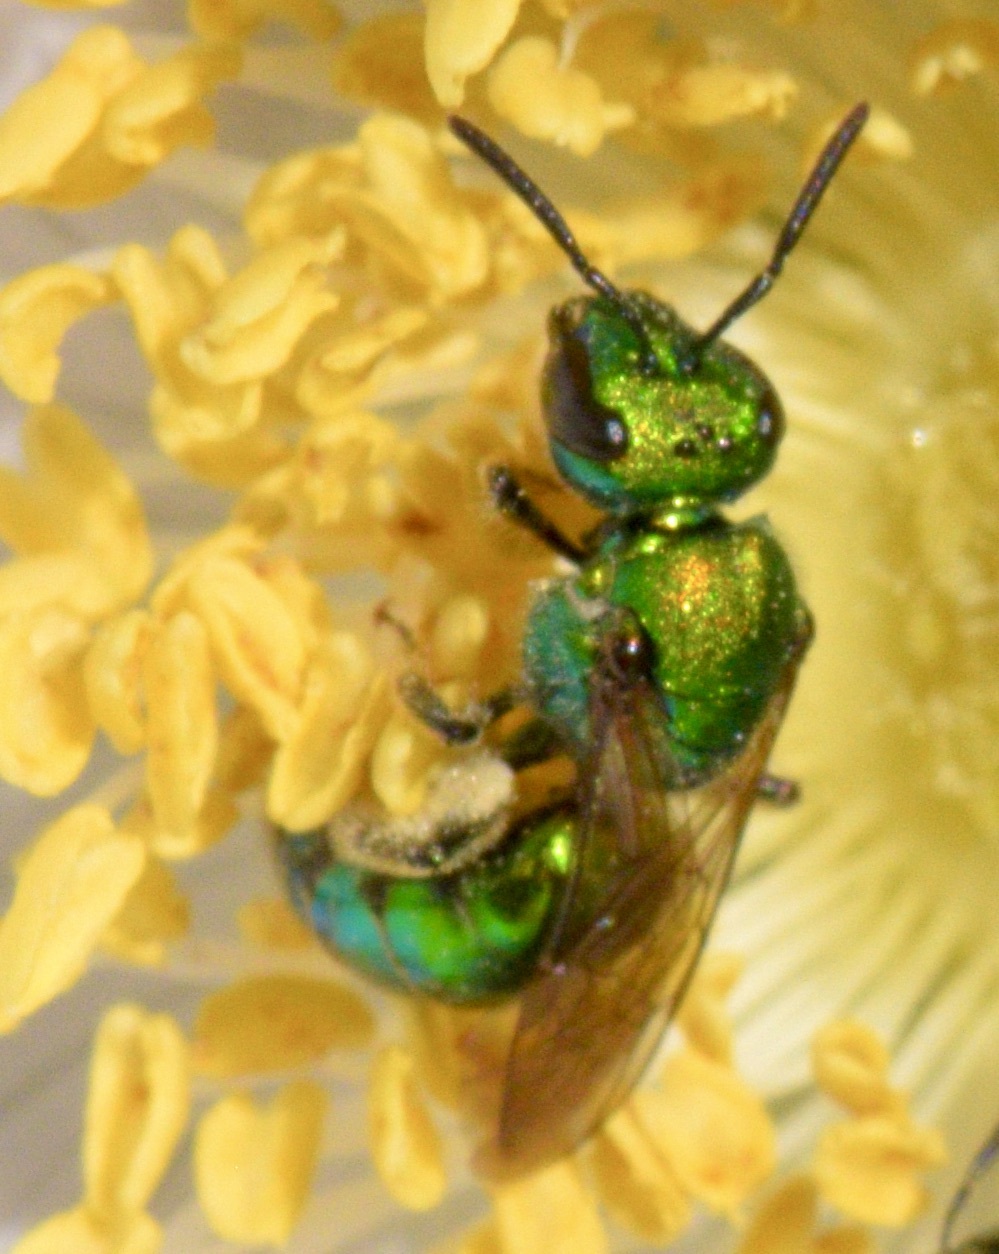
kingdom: Animalia
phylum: Arthropoda
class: Insecta
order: Hymenoptera
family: Halictidae
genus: Augochlora
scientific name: Augochlora pura
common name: Pure green sweat bee
